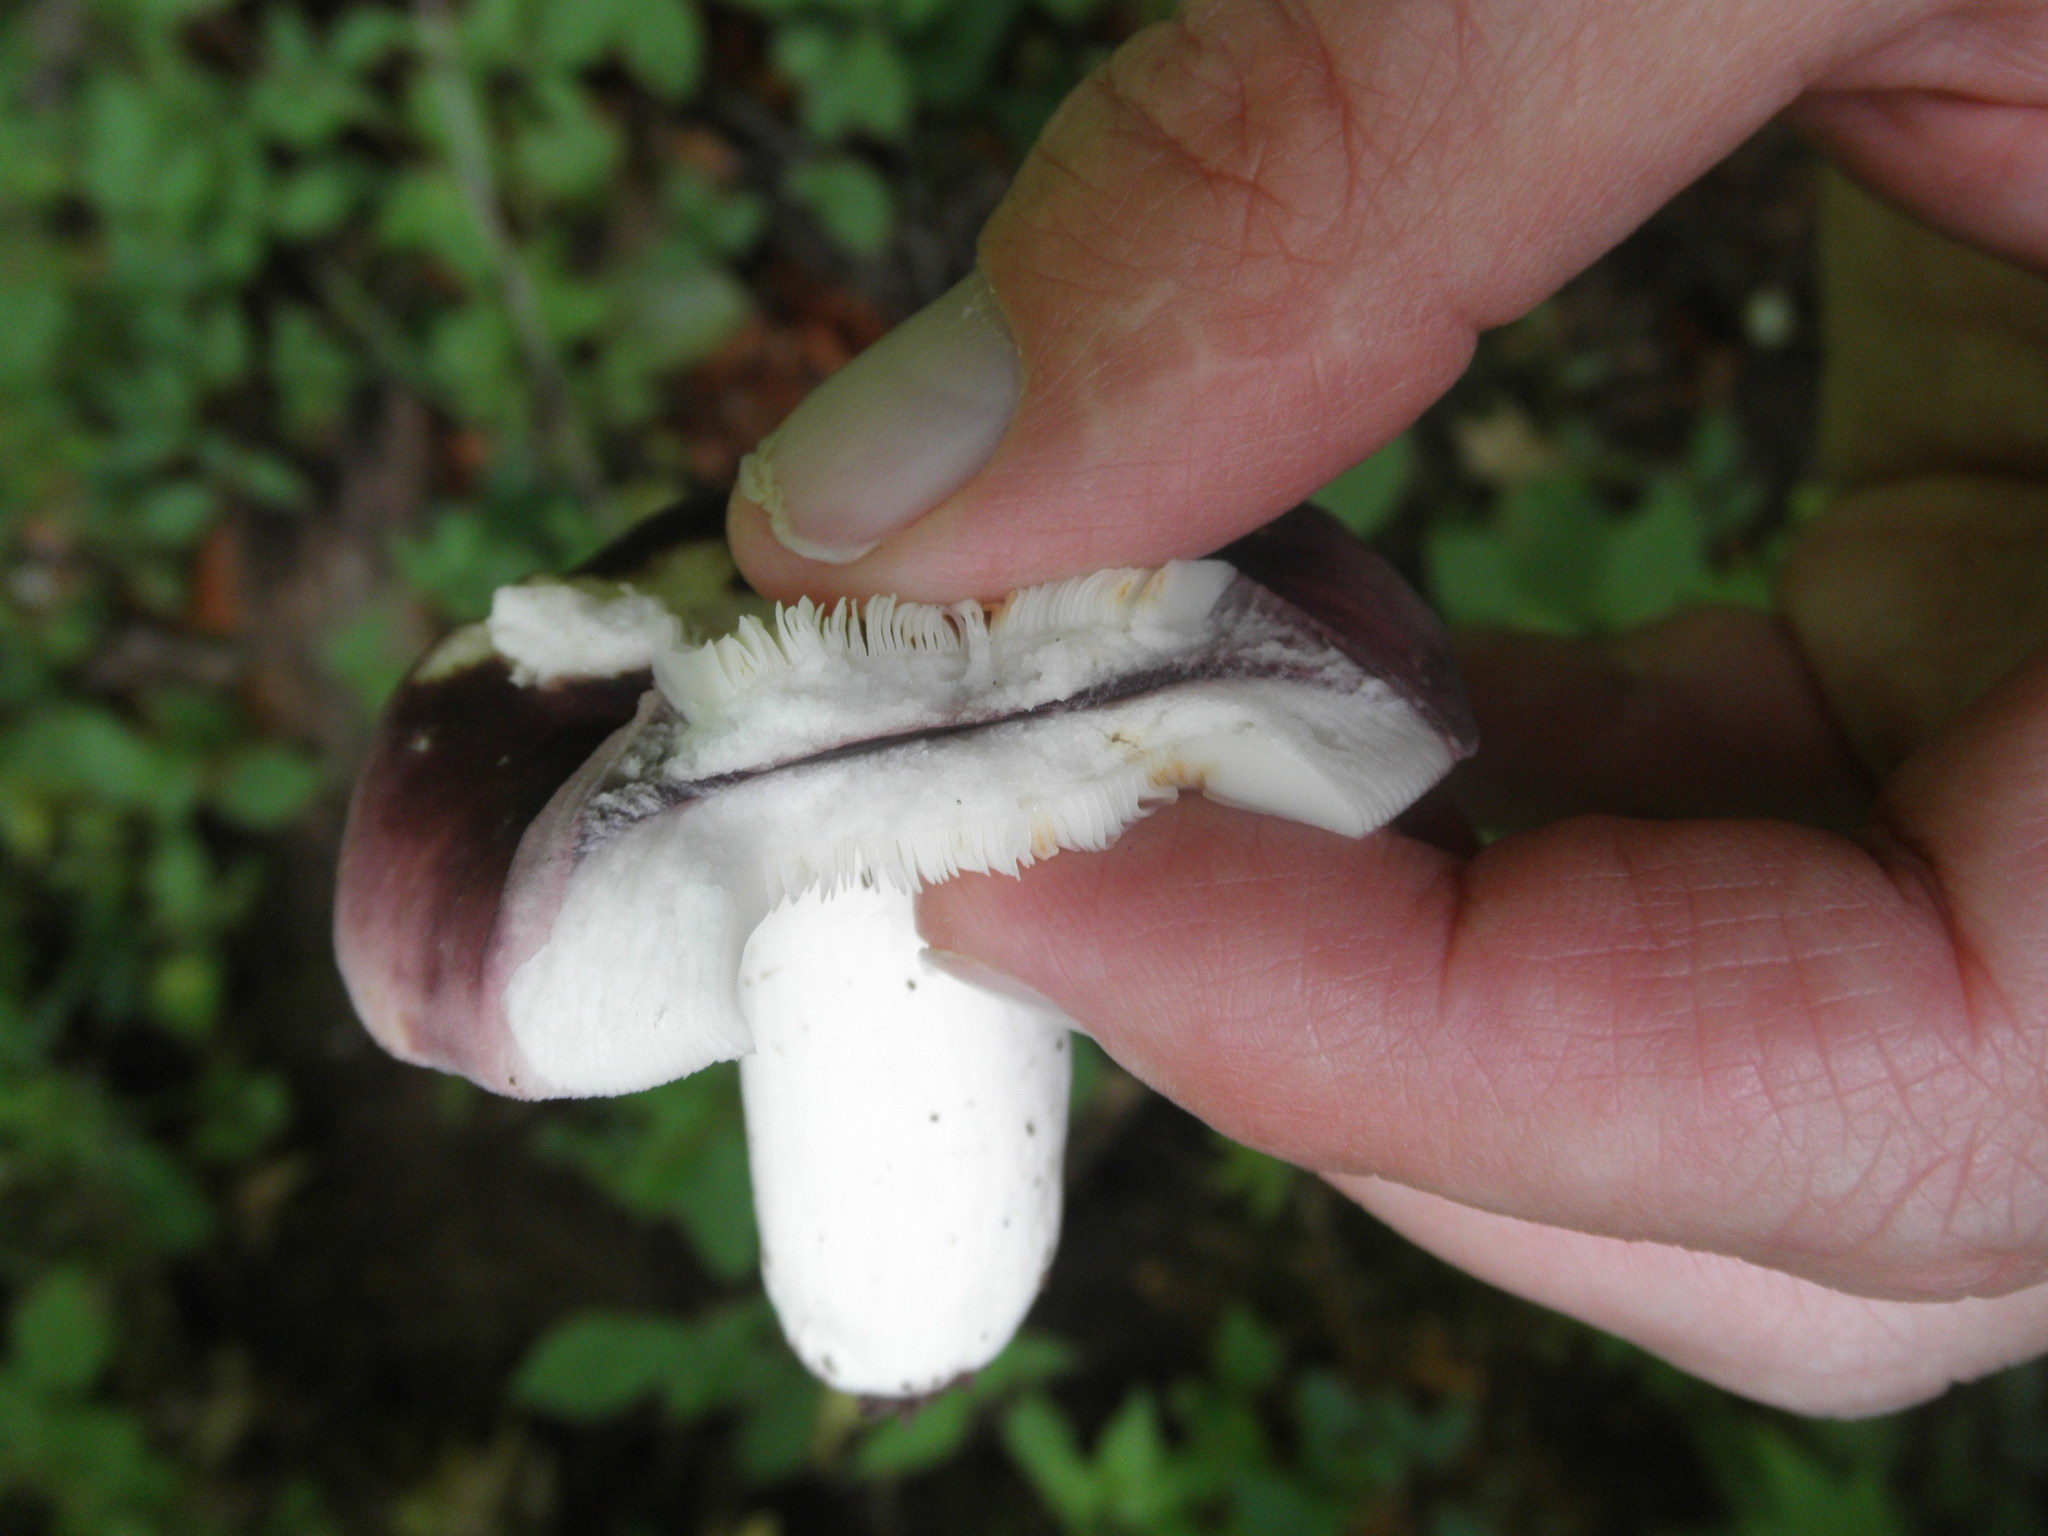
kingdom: Fungi
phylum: Basidiomycota
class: Agaricomycetes
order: Russulales
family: Russulaceae
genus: Russula
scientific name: Russula
